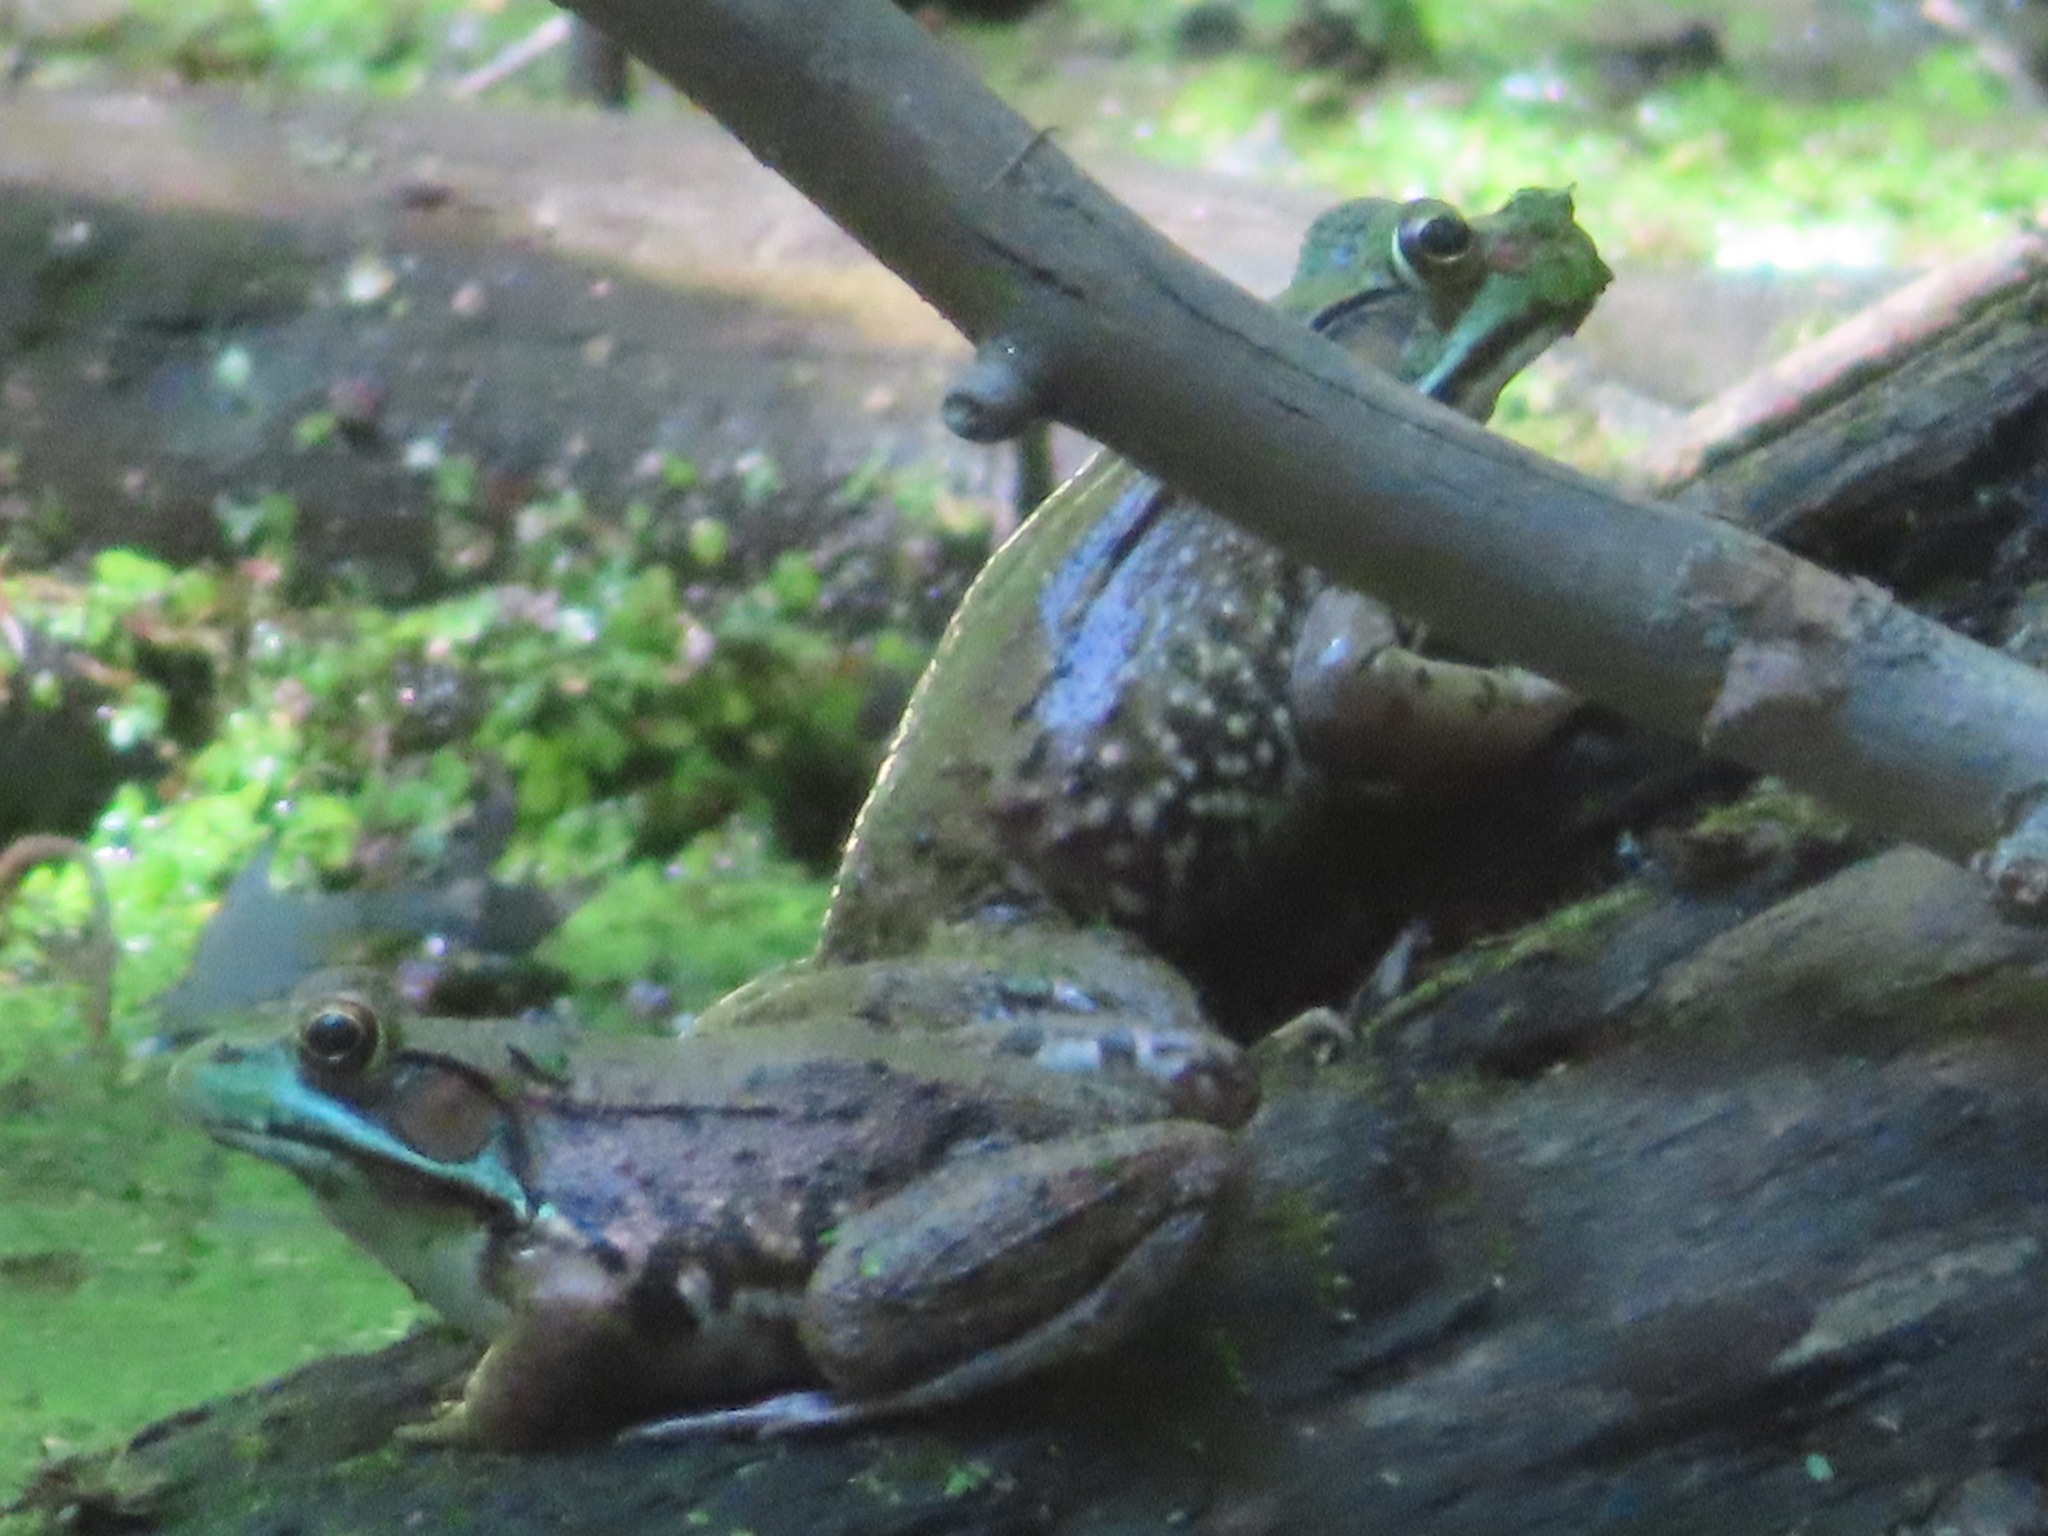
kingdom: Animalia
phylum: Chordata
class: Amphibia
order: Anura
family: Ranidae
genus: Lithobates
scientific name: Lithobates clamitans
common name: Green frog
